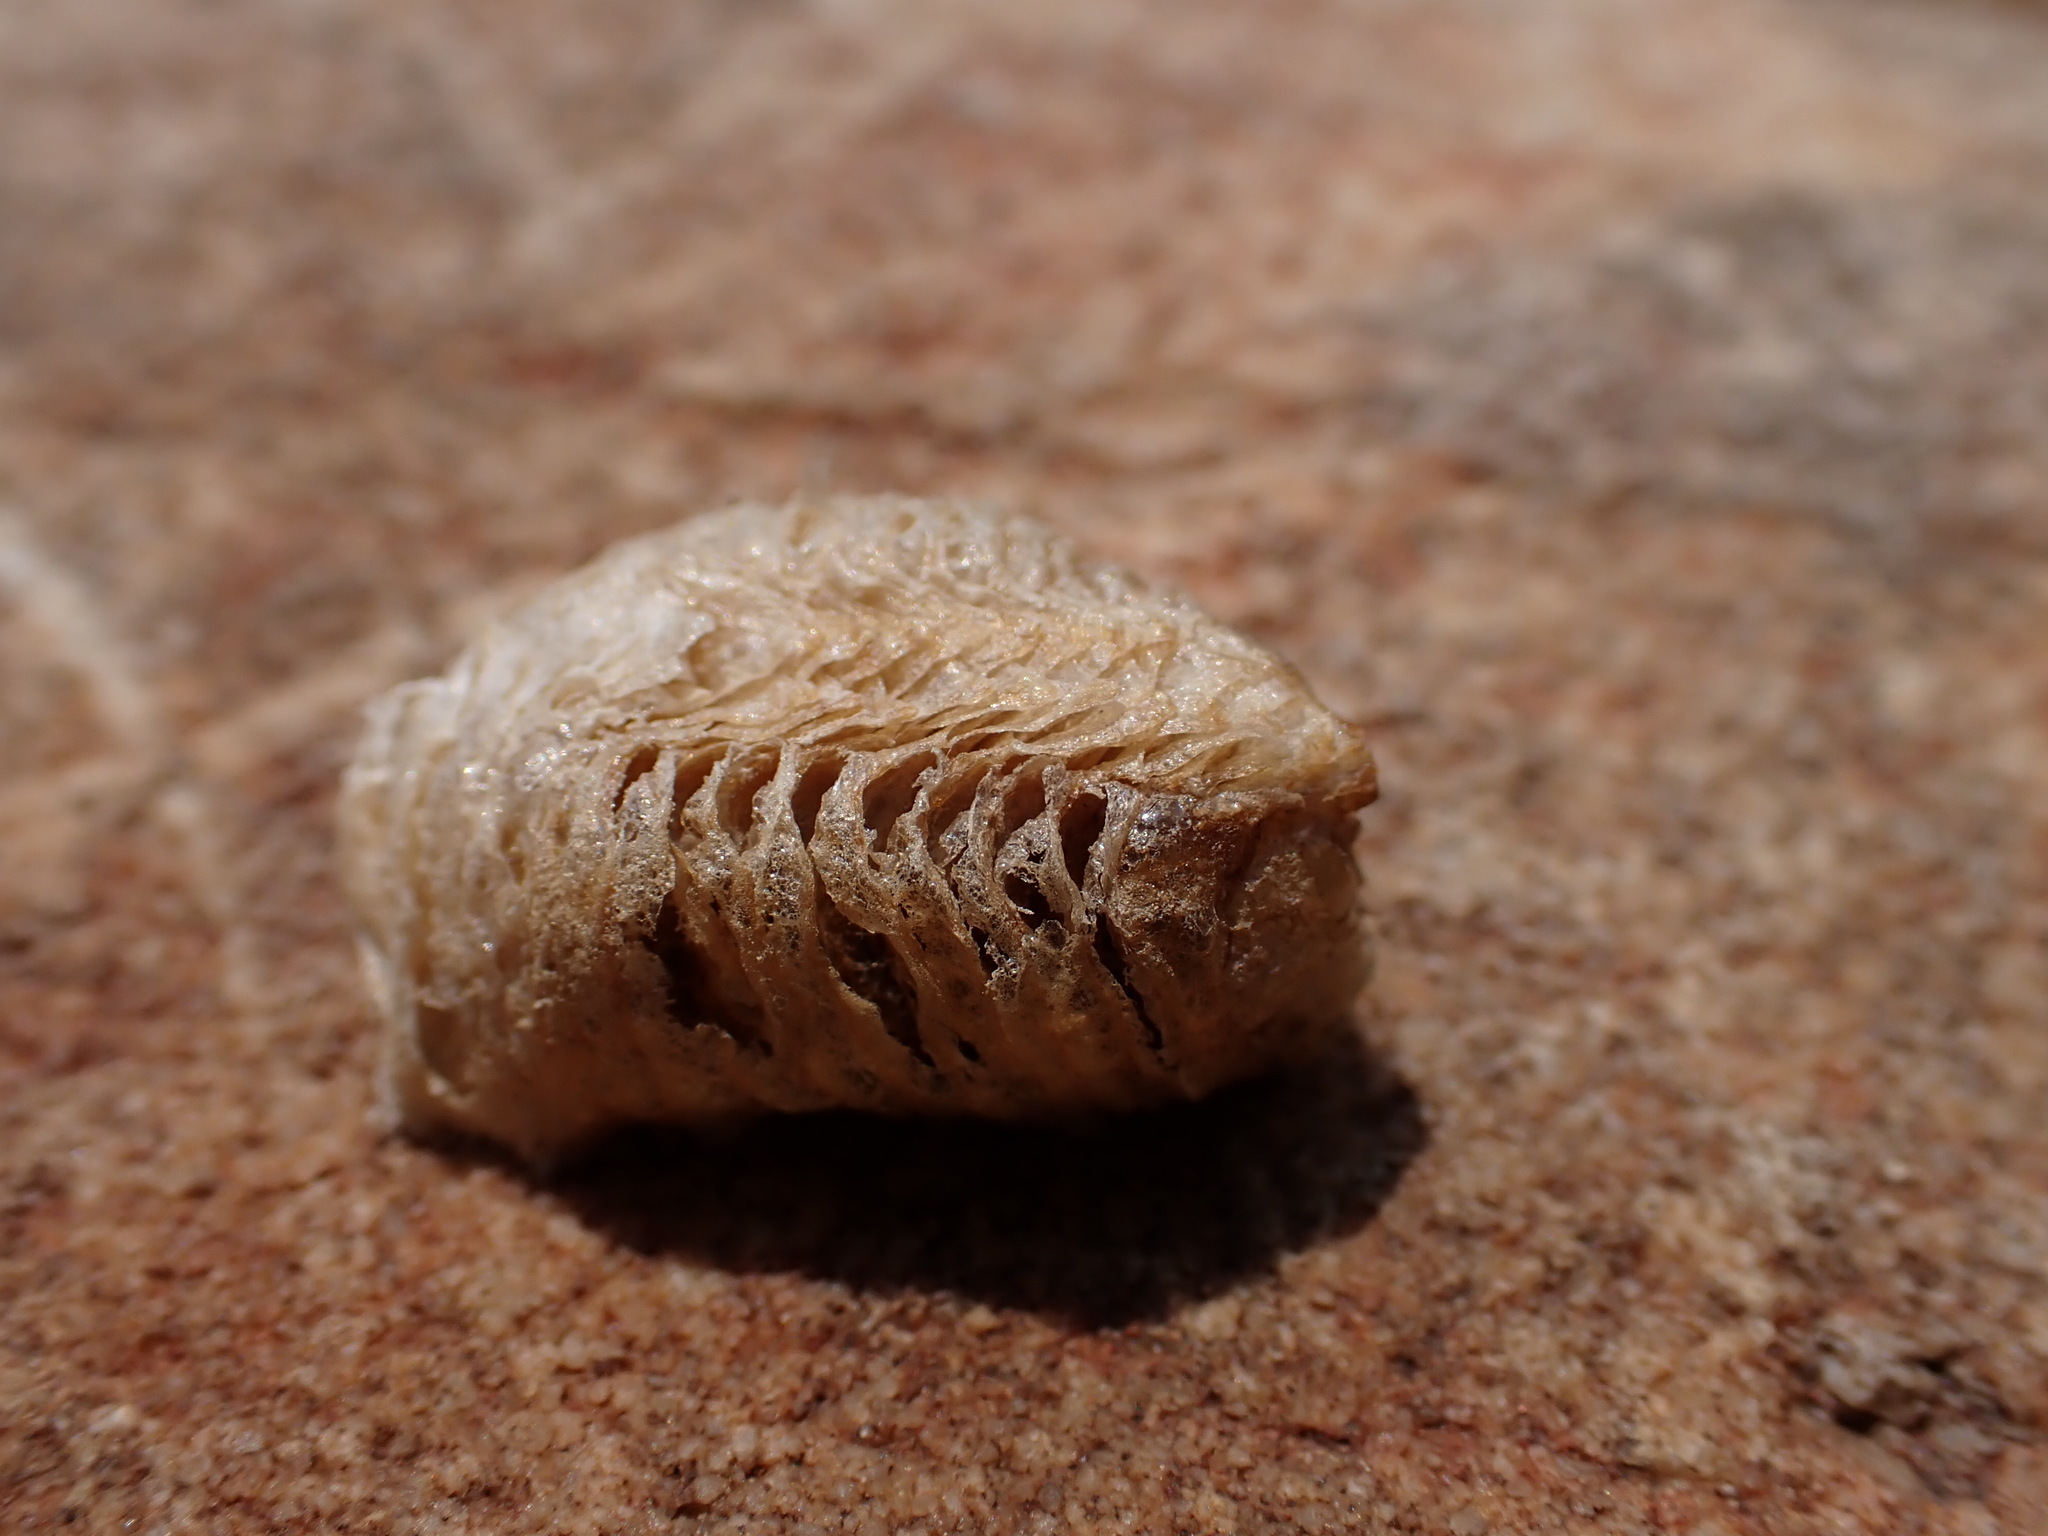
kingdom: Animalia
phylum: Arthropoda
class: Insecta
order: Mantodea
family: Mantidae
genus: Mantis
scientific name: Mantis religiosa
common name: Praying mantis
